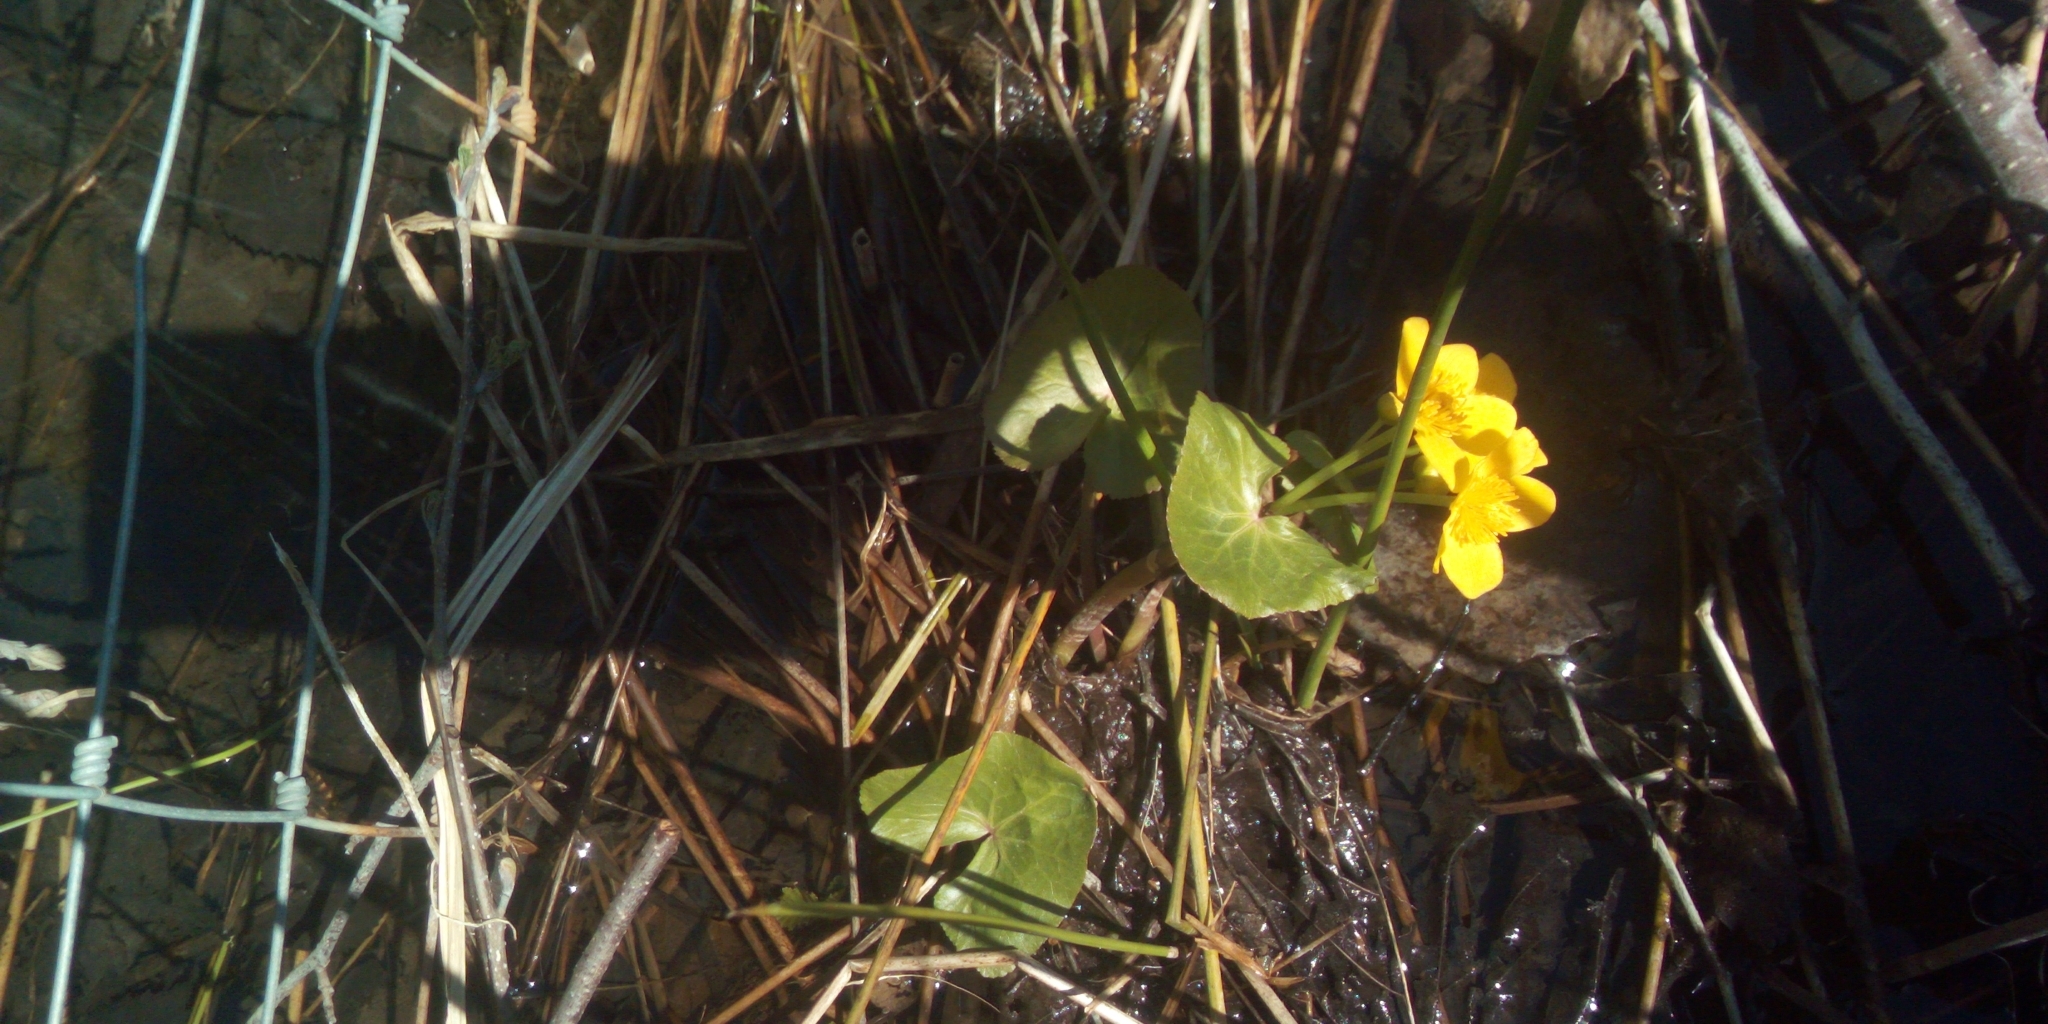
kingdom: Plantae
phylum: Tracheophyta
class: Magnoliopsida
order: Ranunculales
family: Ranunculaceae
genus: Caltha
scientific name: Caltha palustris
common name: Marsh marigold
